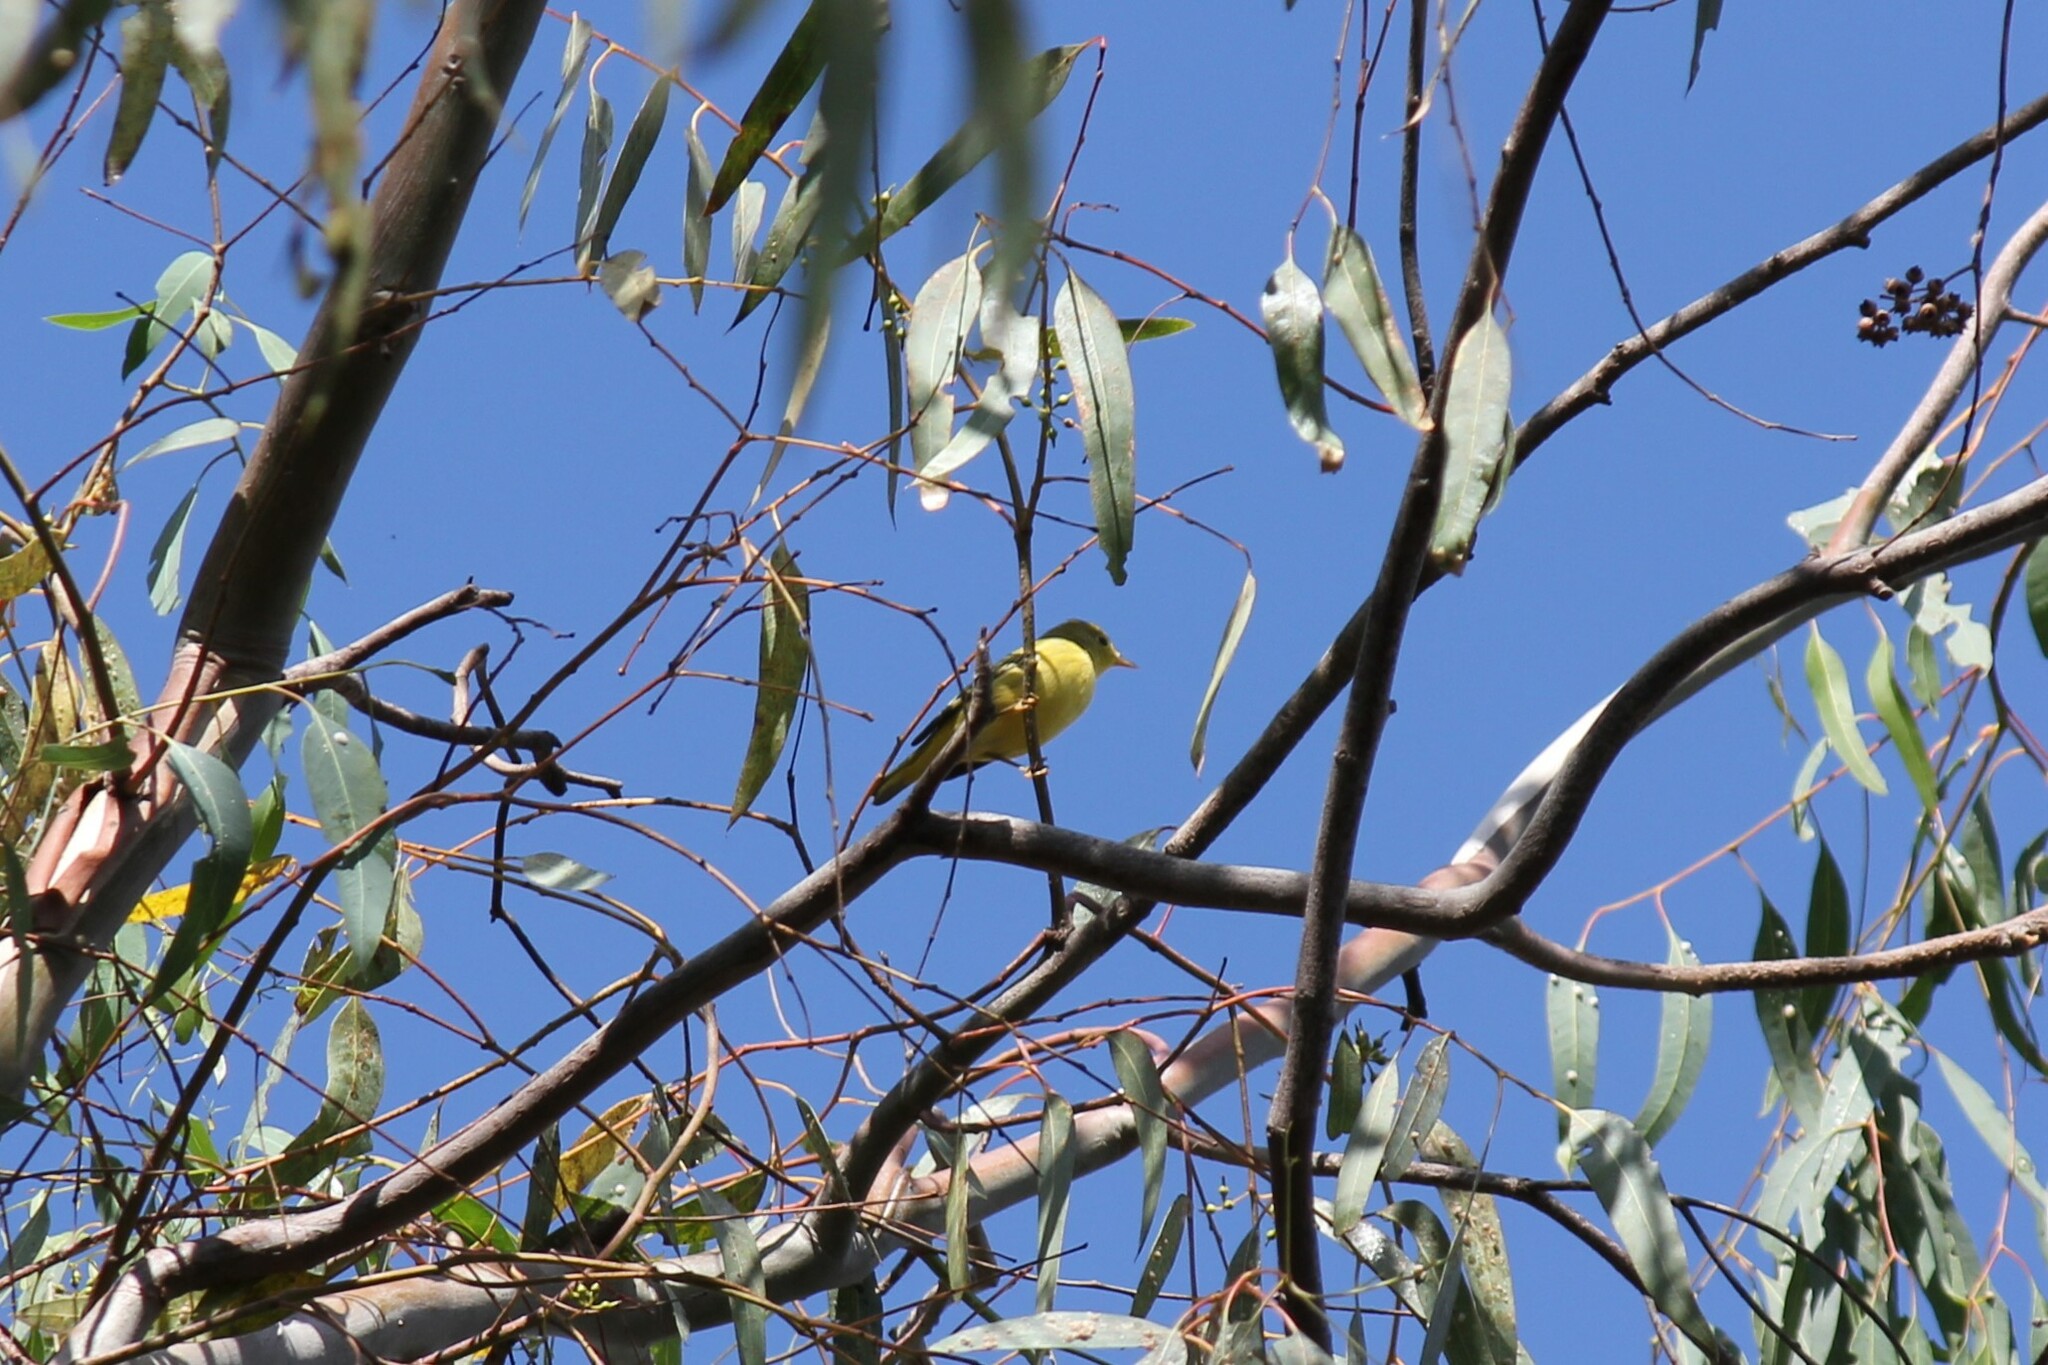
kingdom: Animalia
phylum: Chordata
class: Aves
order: Passeriformes
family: Parulidae
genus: Setophaga
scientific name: Setophaga petechia
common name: Yellow warbler
